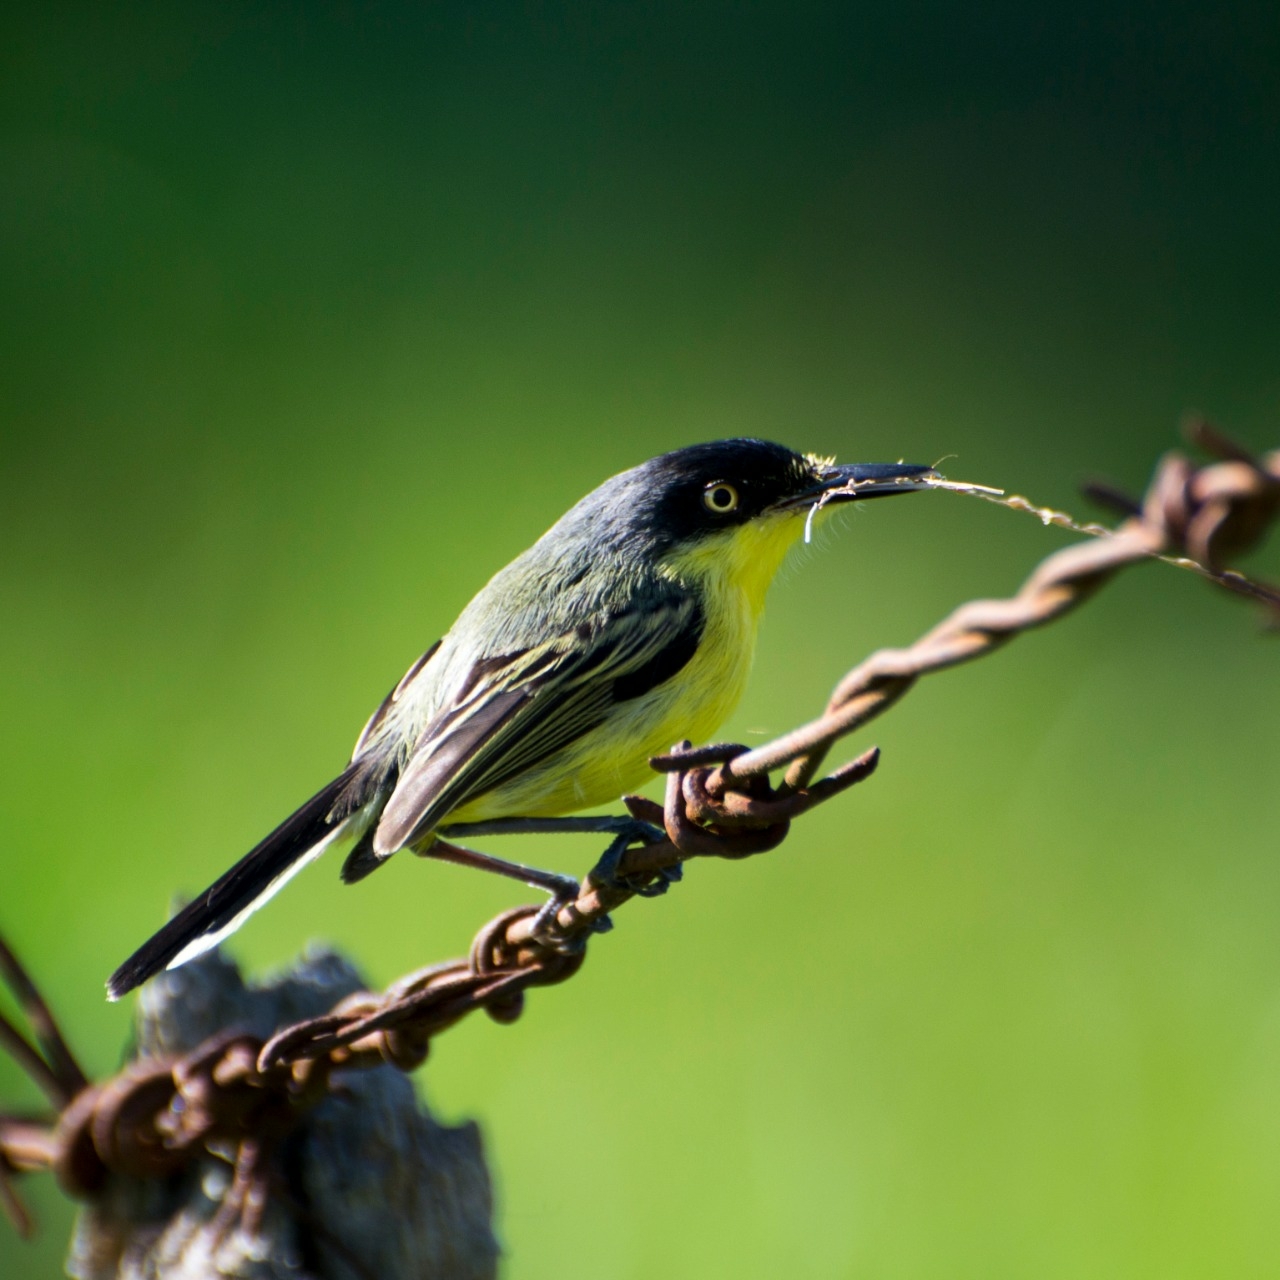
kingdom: Animalia
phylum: Chordata
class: Aves
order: Passeriformes
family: Tyrannidae
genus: Todirostrum
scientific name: Todirostrum cinereum
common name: Common tody-flycatcher
